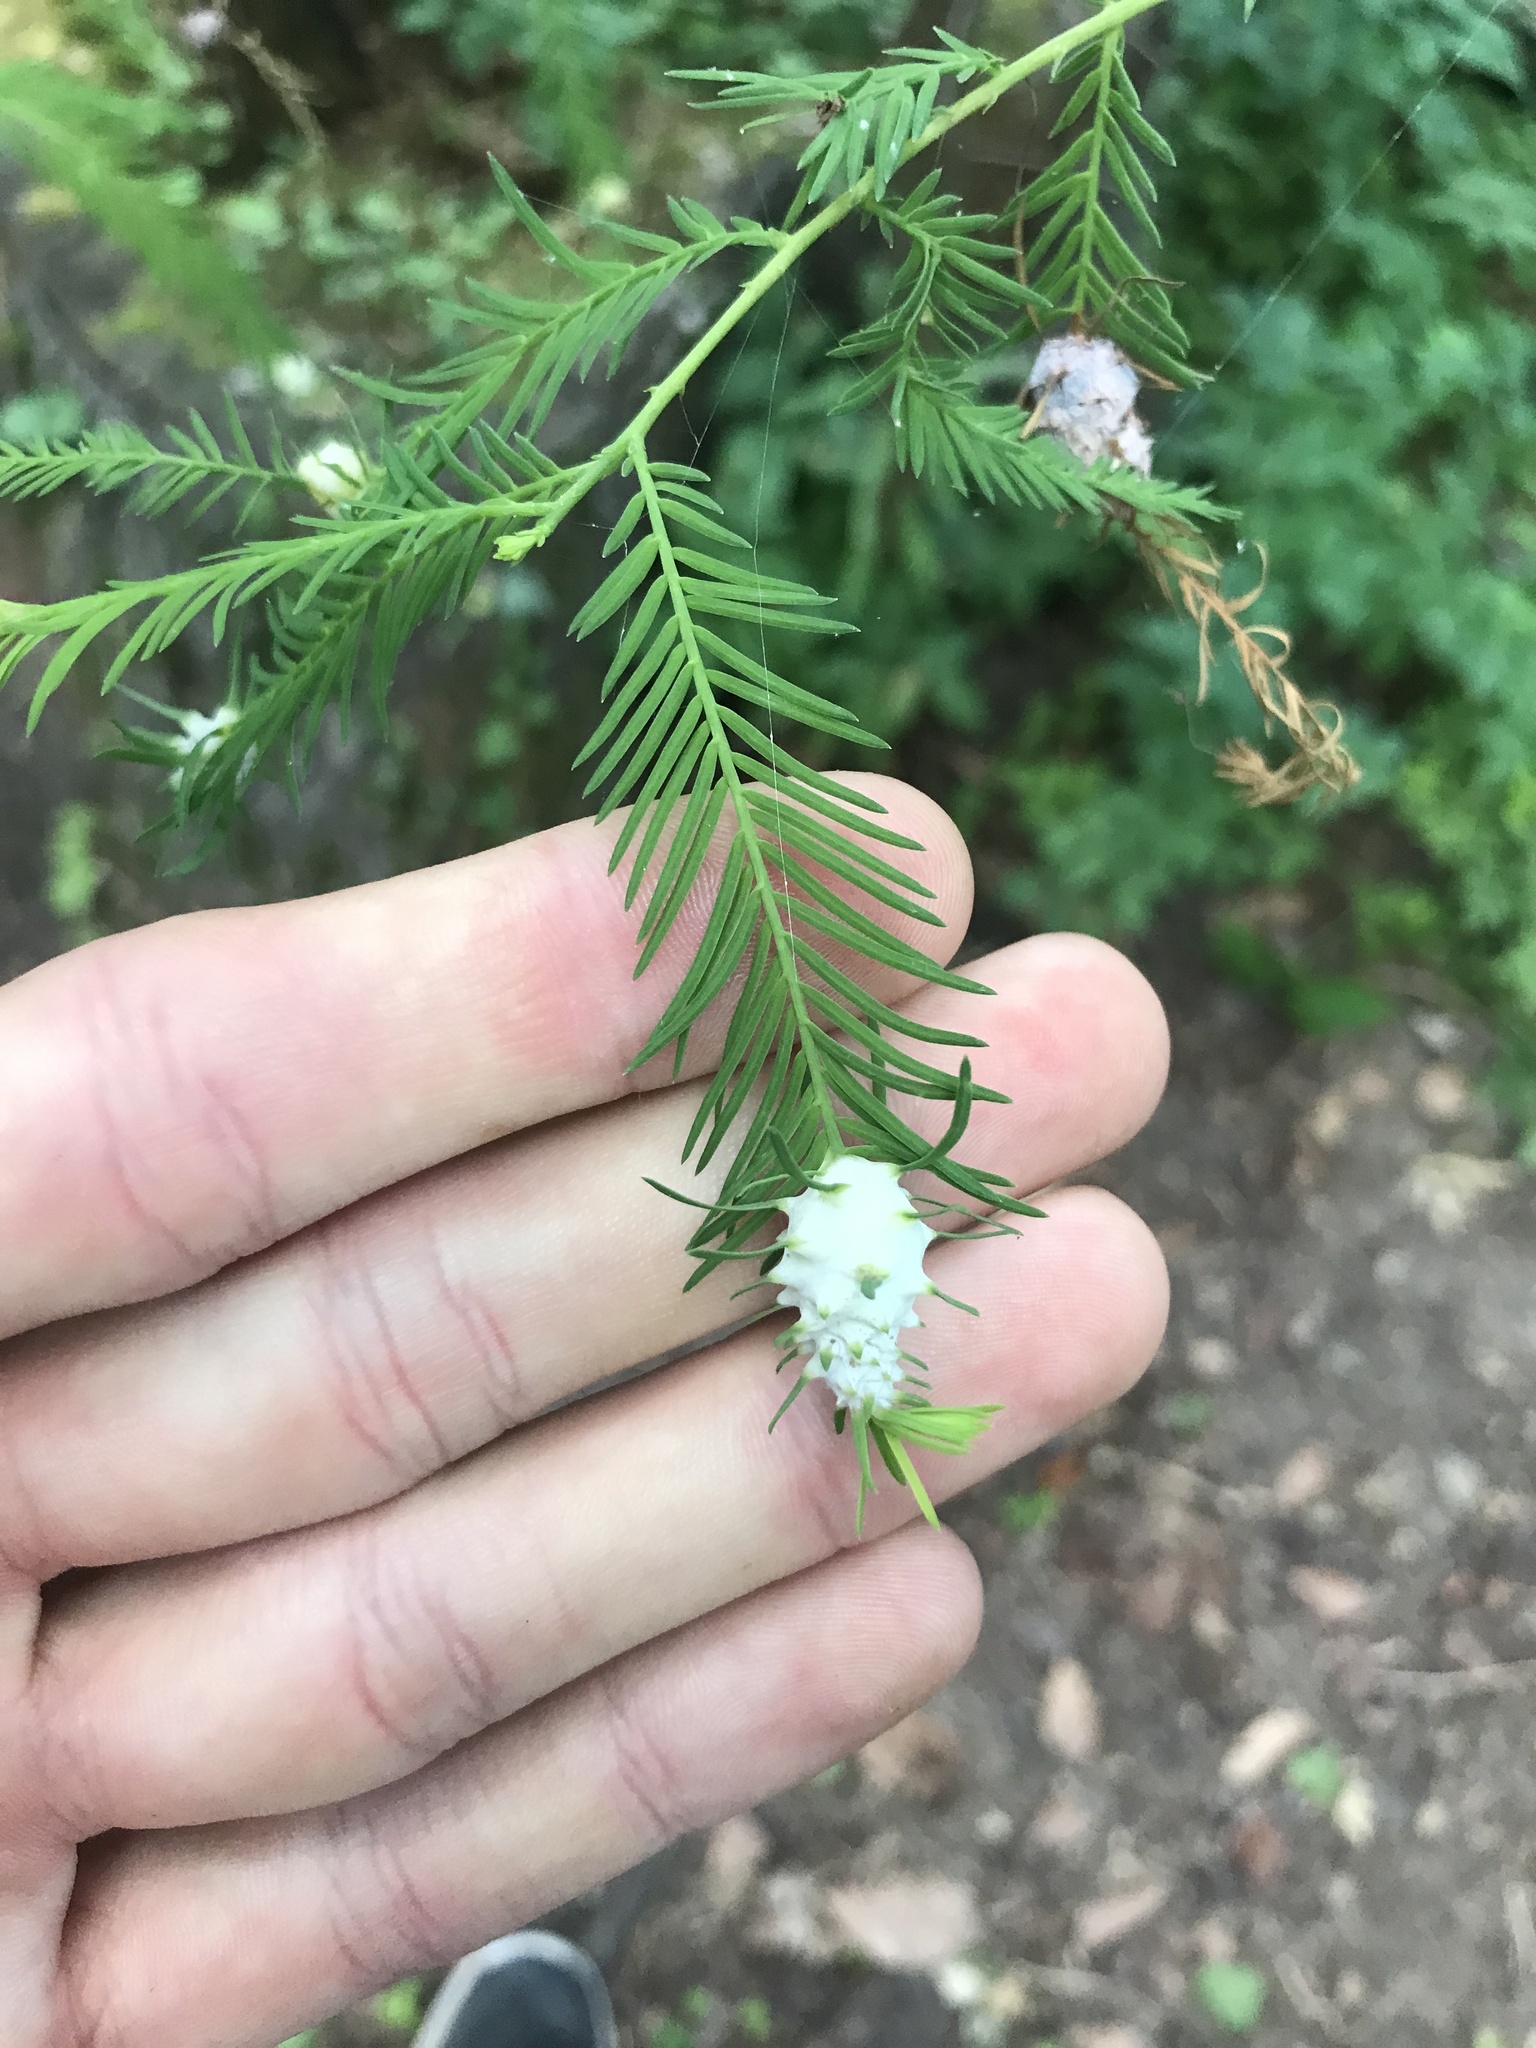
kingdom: Animalia
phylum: Arthropoda
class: Insecta
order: Diptera
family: Cecidomyiidae
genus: Taxodiomyia
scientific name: Taxodiomyia cupressiananassa
